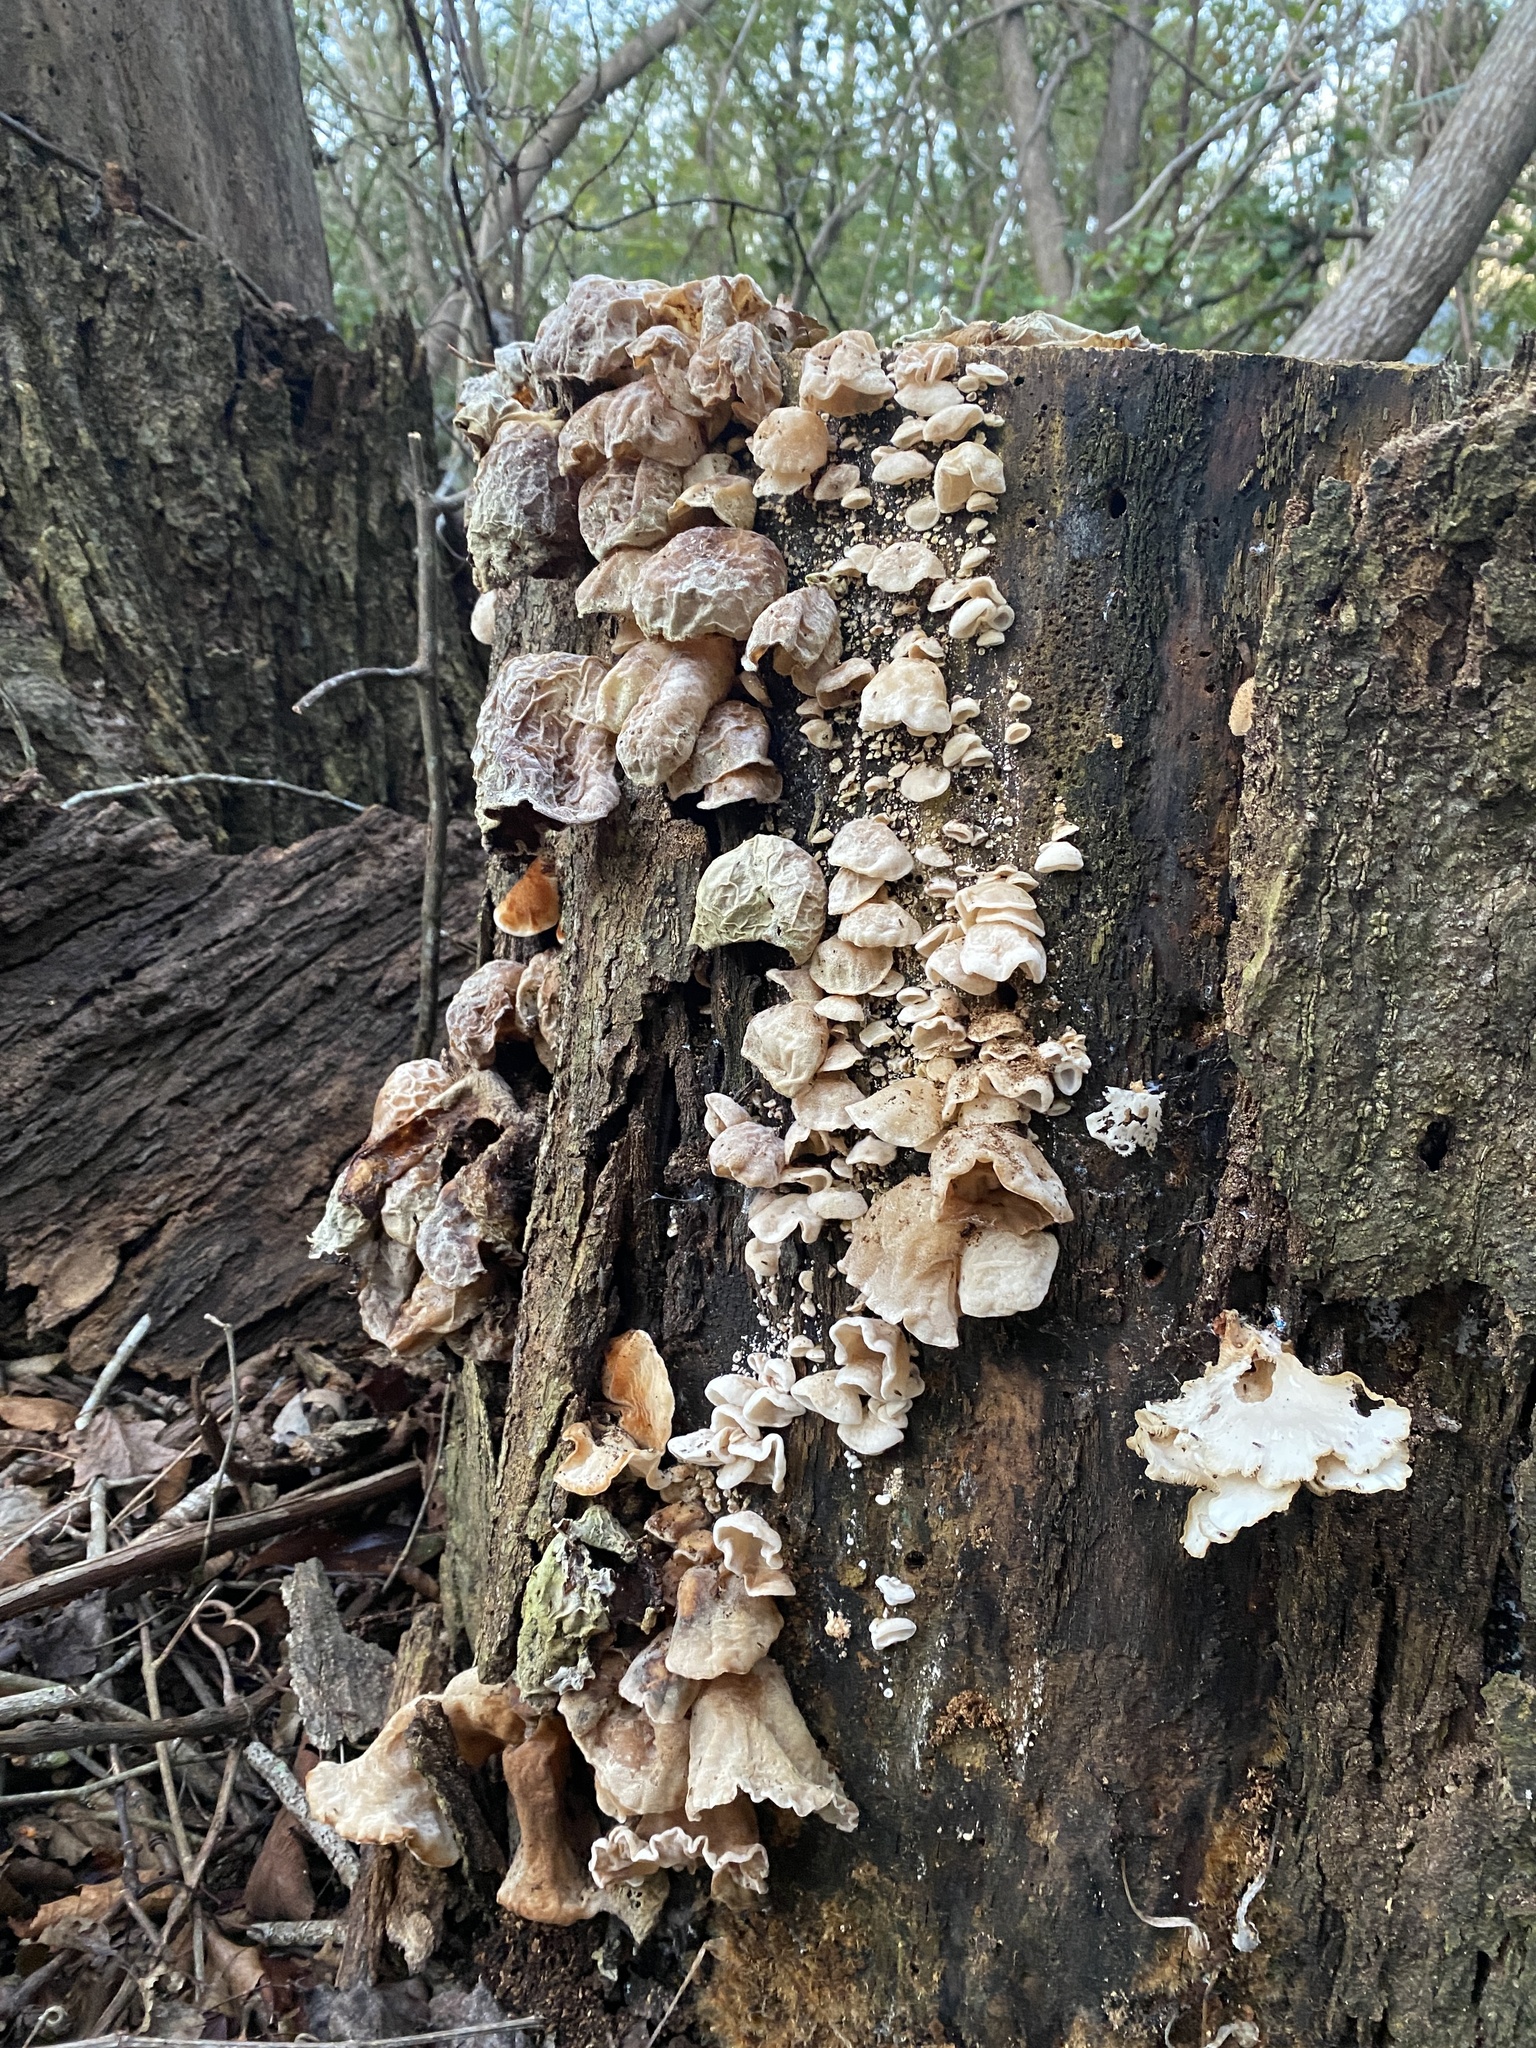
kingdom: Fungi
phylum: Basidiomycota
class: Agaricomycetes
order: Auriculariales
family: Auriculariaceae
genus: Auricularia
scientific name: Auricularia
